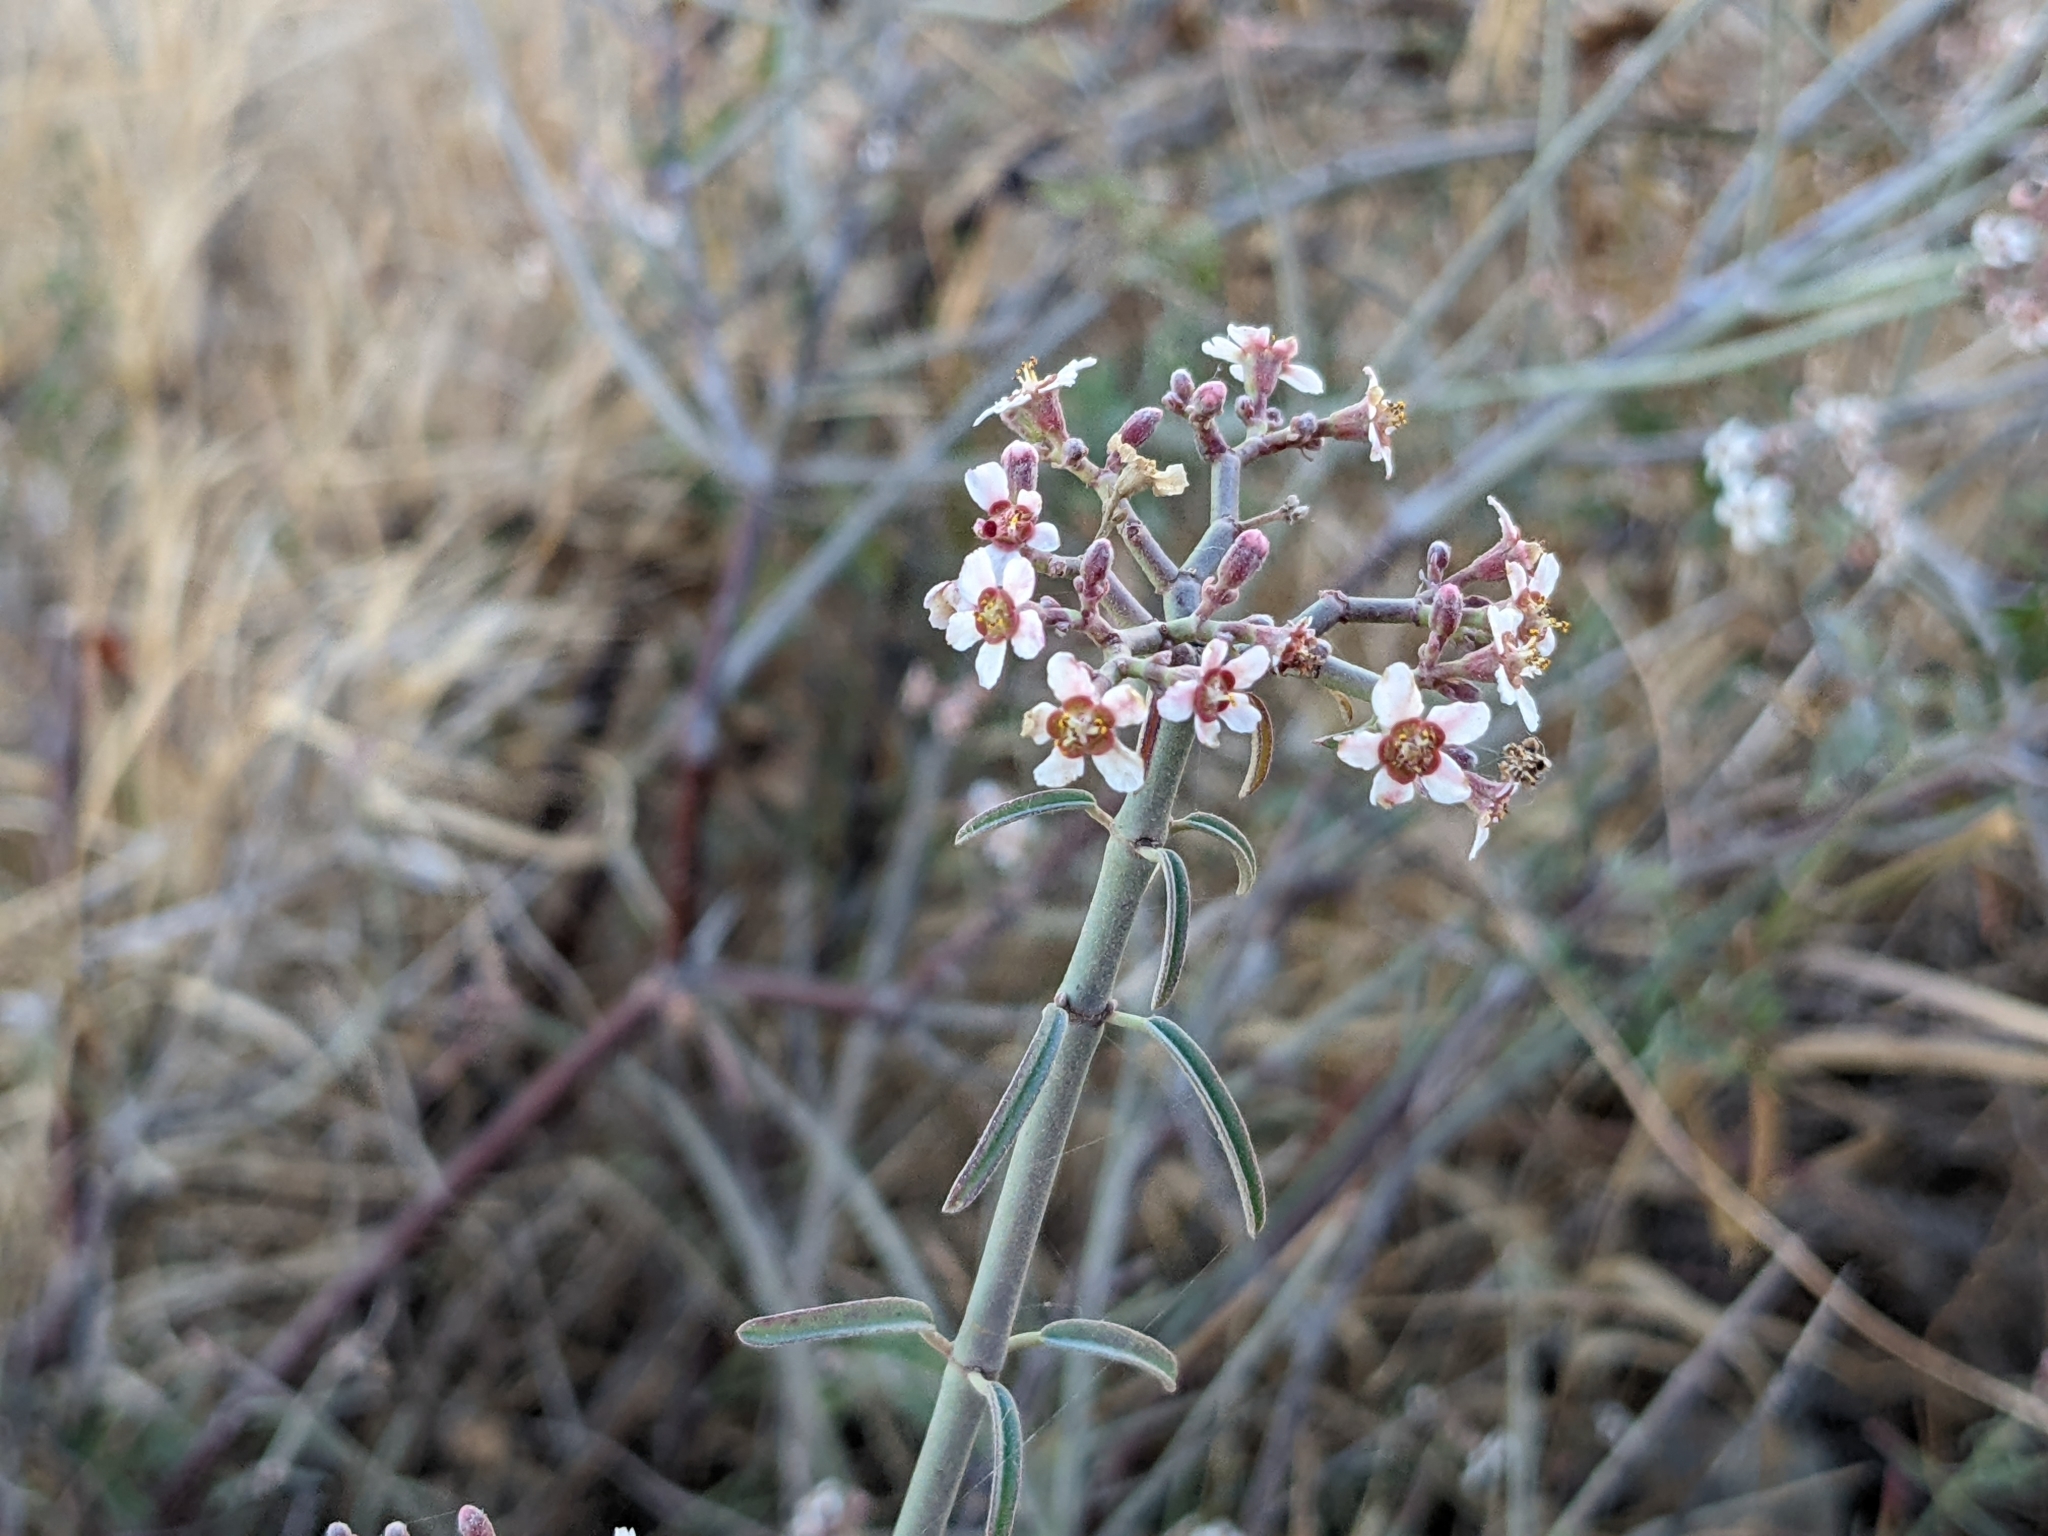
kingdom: Plantae
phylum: Tracheophyta
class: Magnoliopsida
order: Malpighiales
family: Euphorbiaceae
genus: Euphorbia
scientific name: Euphorbia xanti
